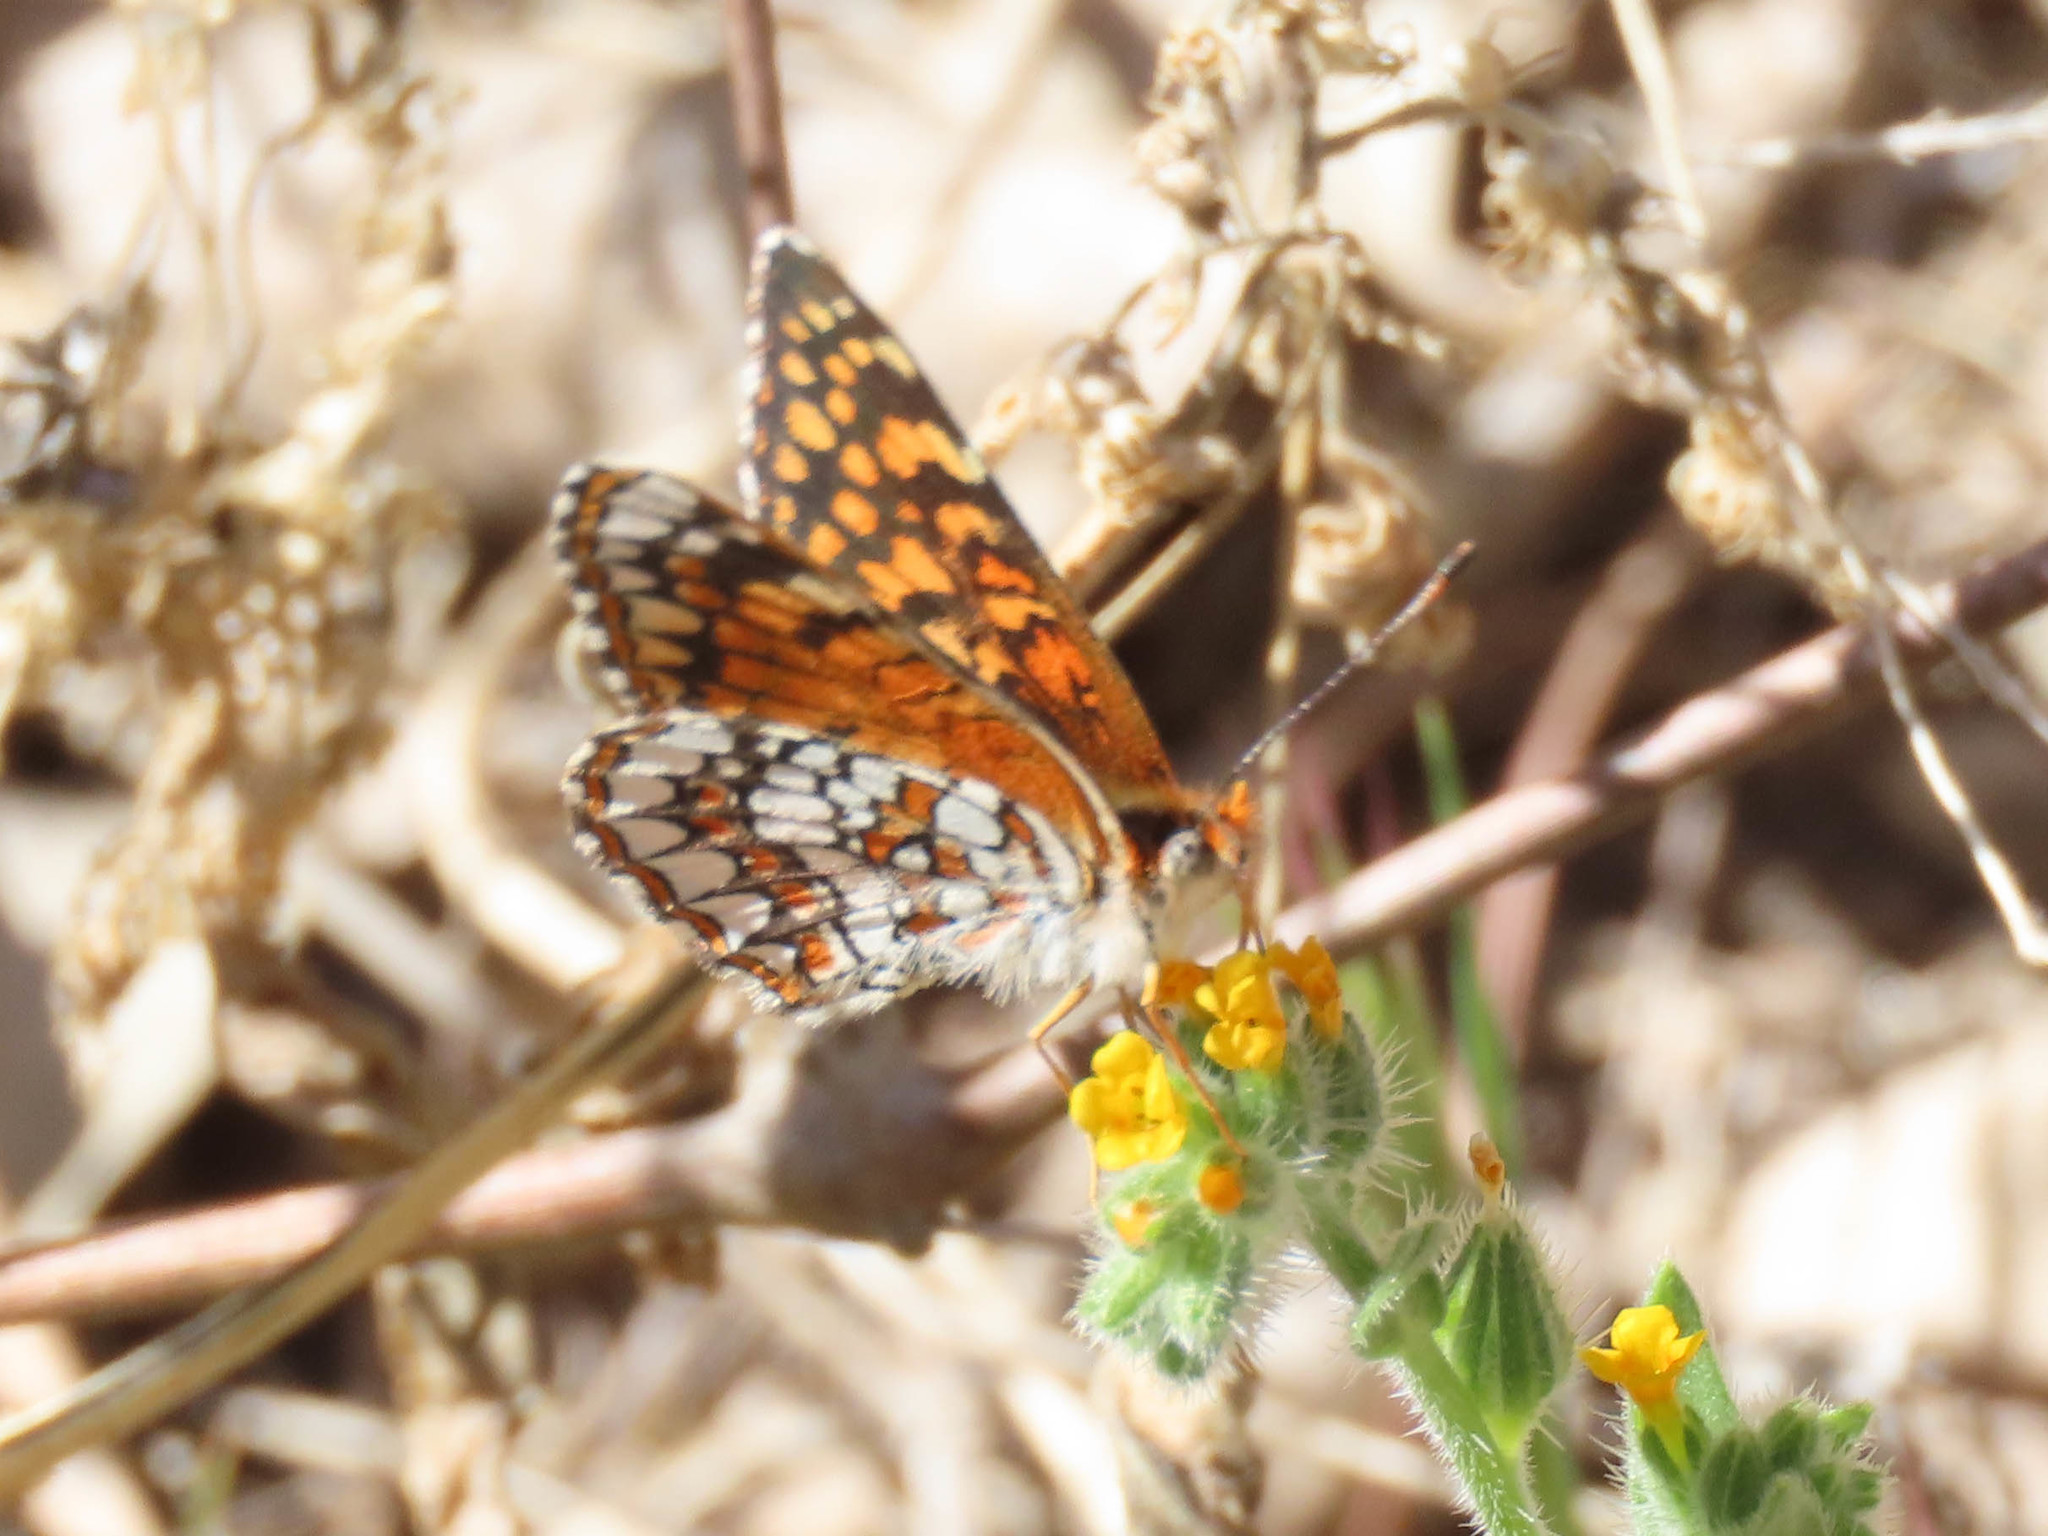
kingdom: Animalia
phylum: Arthropoda
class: Insecta
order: Lepidoptera
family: Nymphalidae
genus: Chlosyne
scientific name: Chlosyne acastus
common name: Sagebrush checkerspot
